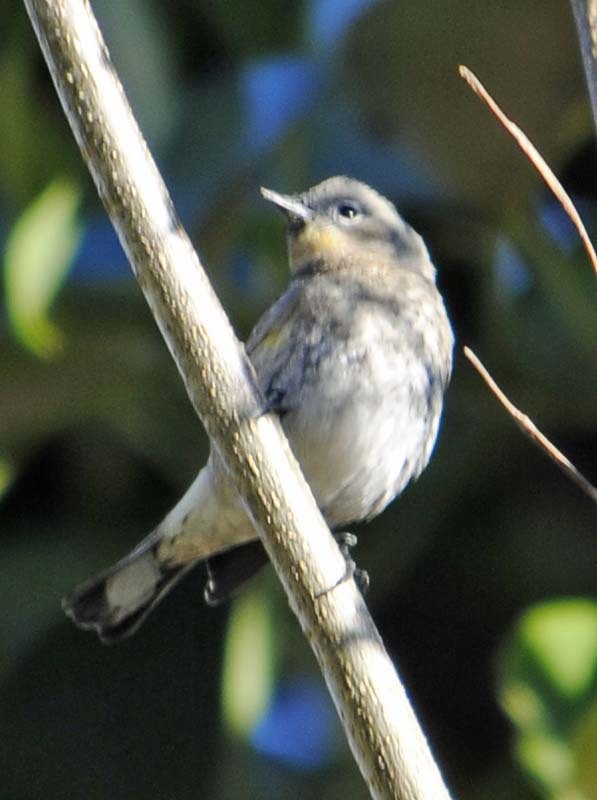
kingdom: Animalia
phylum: Chordata
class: Aves
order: Passeriformes
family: Parulidae
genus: Setophaga
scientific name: Setophaga coronata
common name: Myrtle warbler
